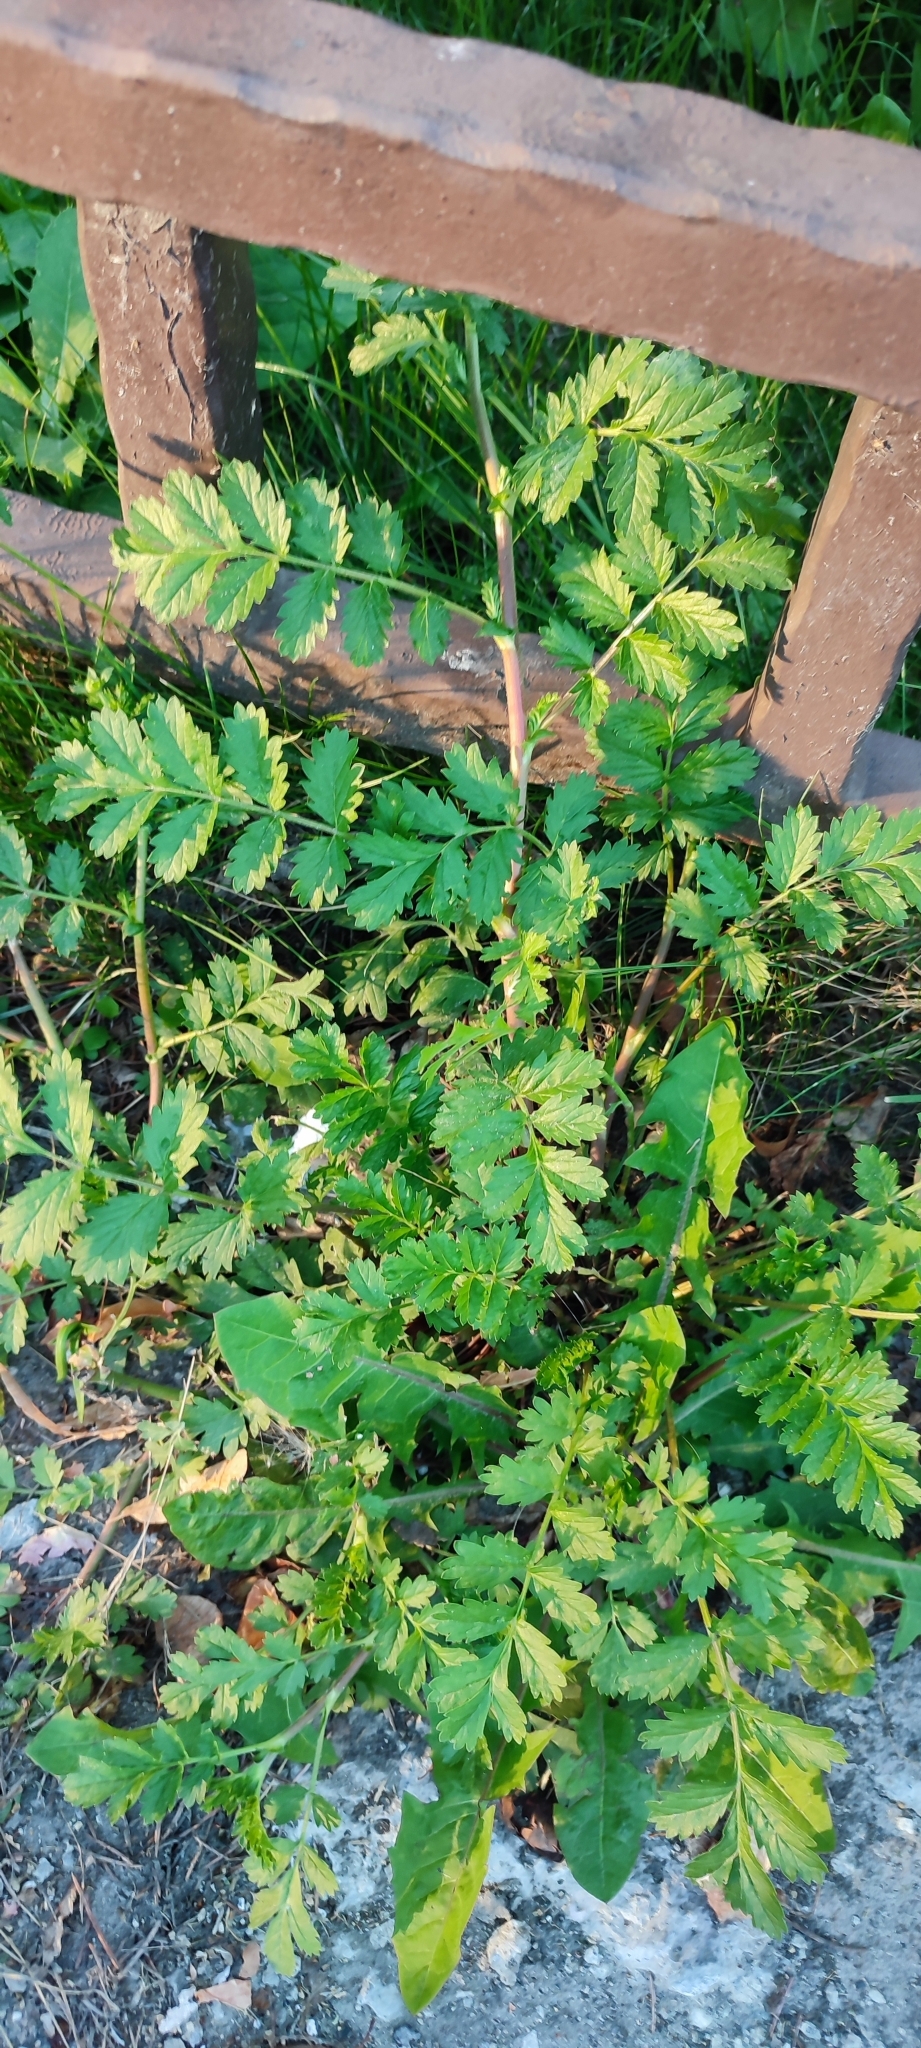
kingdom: Plantae
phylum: Tracheophyta
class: Magnoliopsida
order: Rosales
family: Rosaceae
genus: Potentilla
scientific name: Potentilla supina
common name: Prostrate cinquefoil
